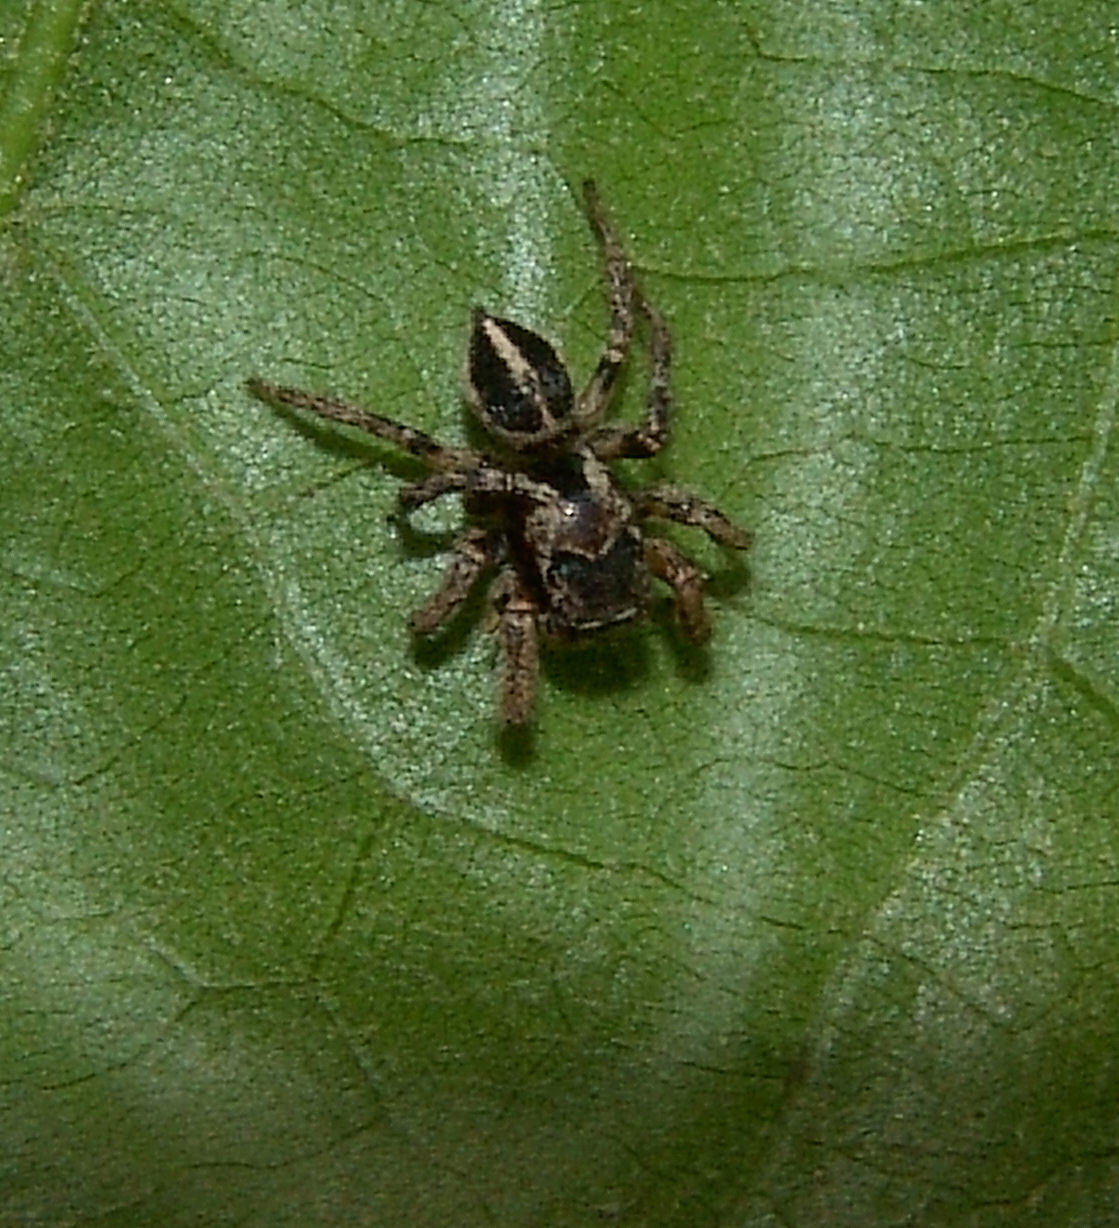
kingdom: Animalia
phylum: Arthropoda
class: Arachnida
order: Araneae
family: Salticidae
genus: Habronattus
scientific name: Habronattus orbus
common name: Orbus paradise spider
